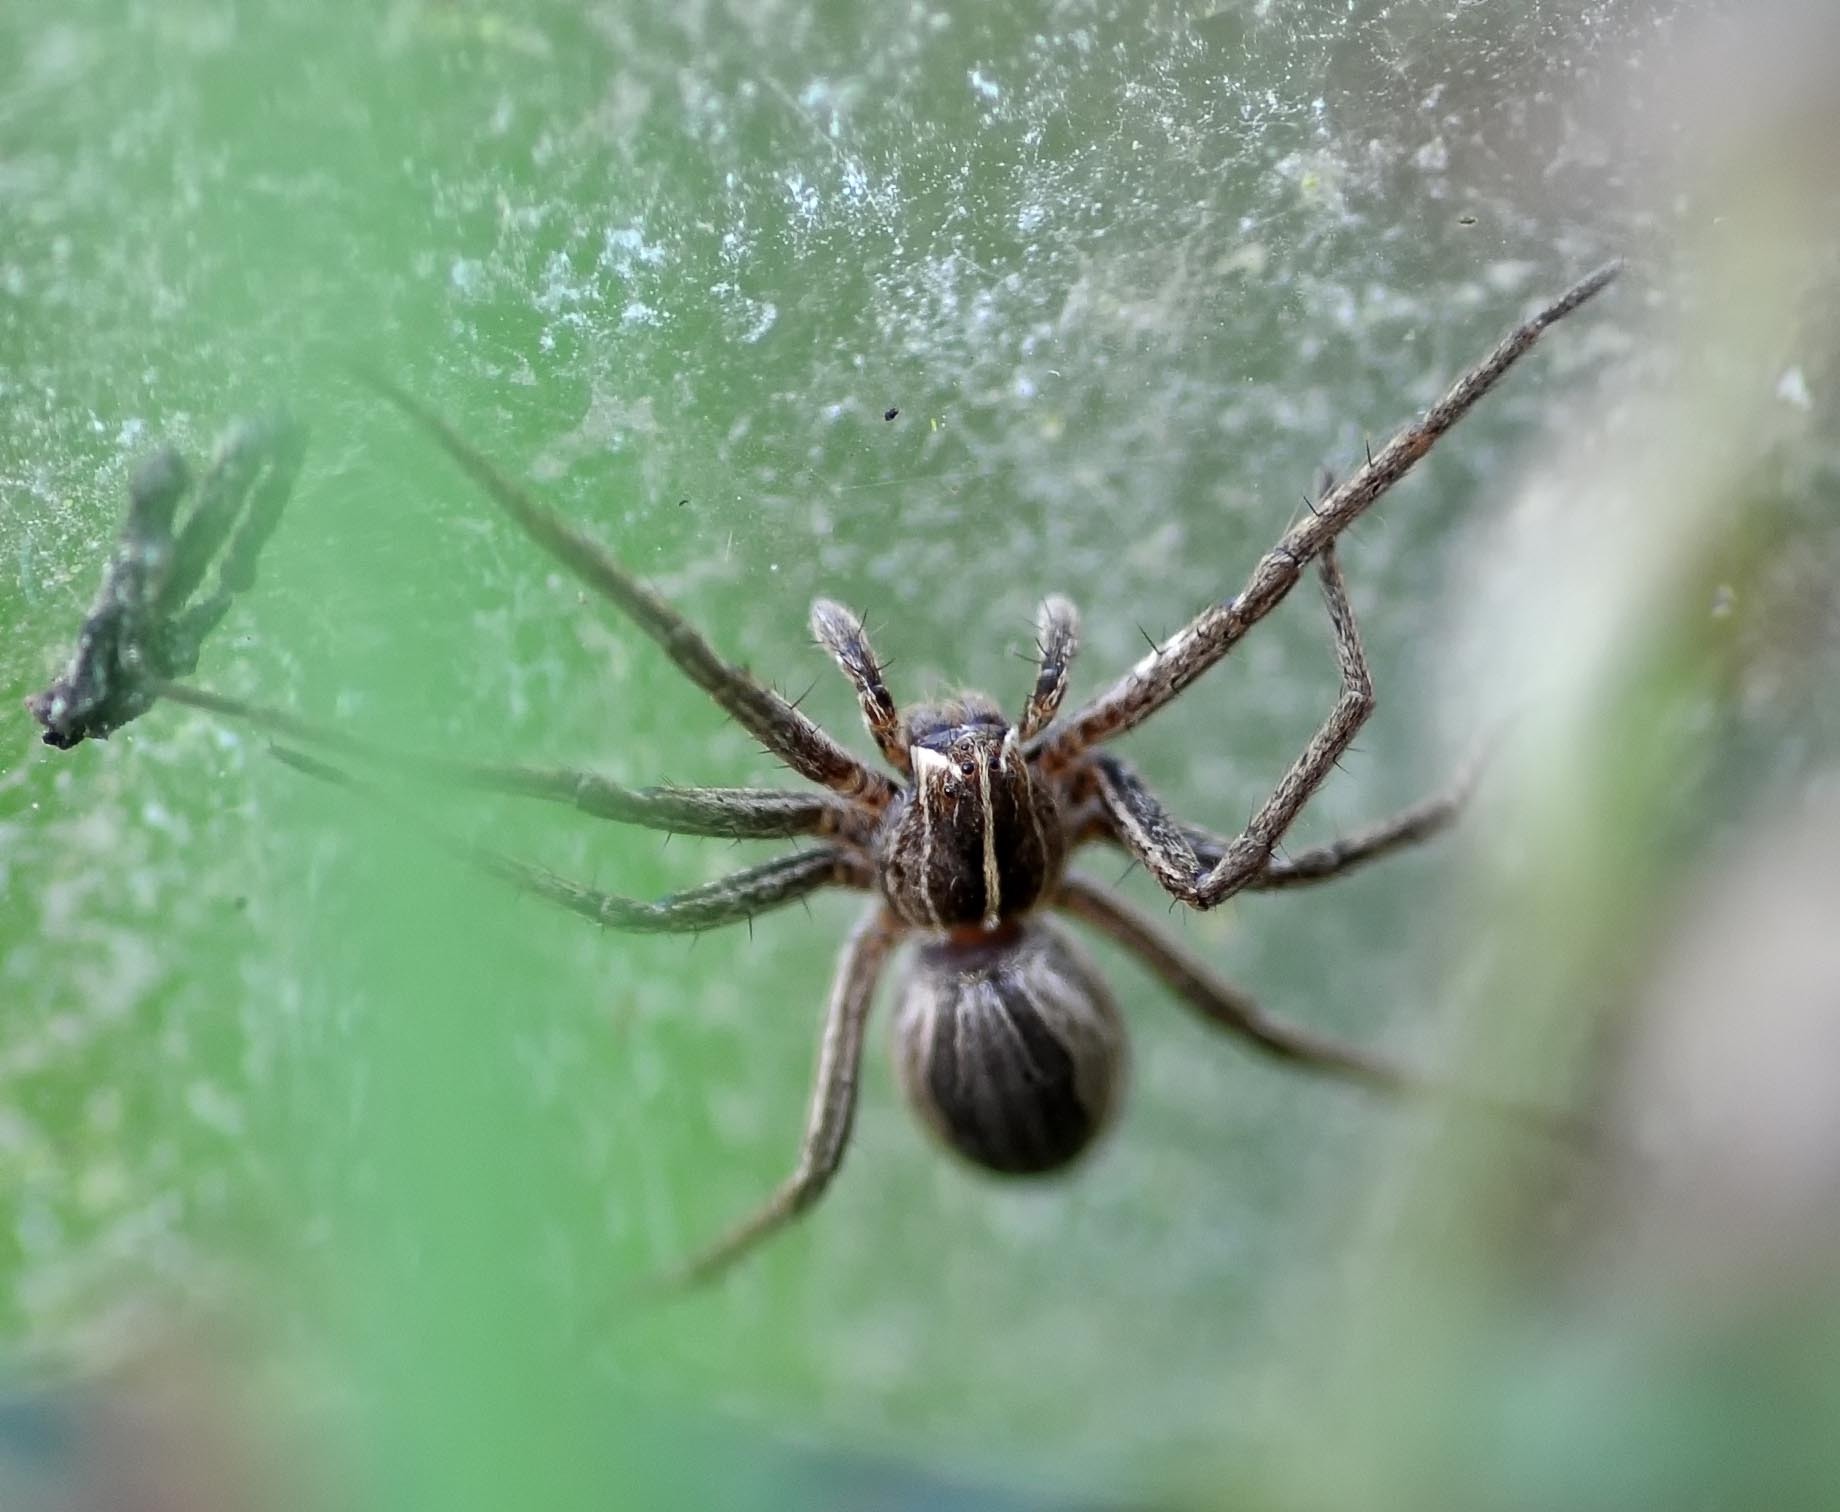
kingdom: Animalia
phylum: Arthropoda
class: Arachnida
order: Araneae
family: Pisauridae
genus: Pisaura
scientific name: Pisaura mirabilis
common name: Tent spider
